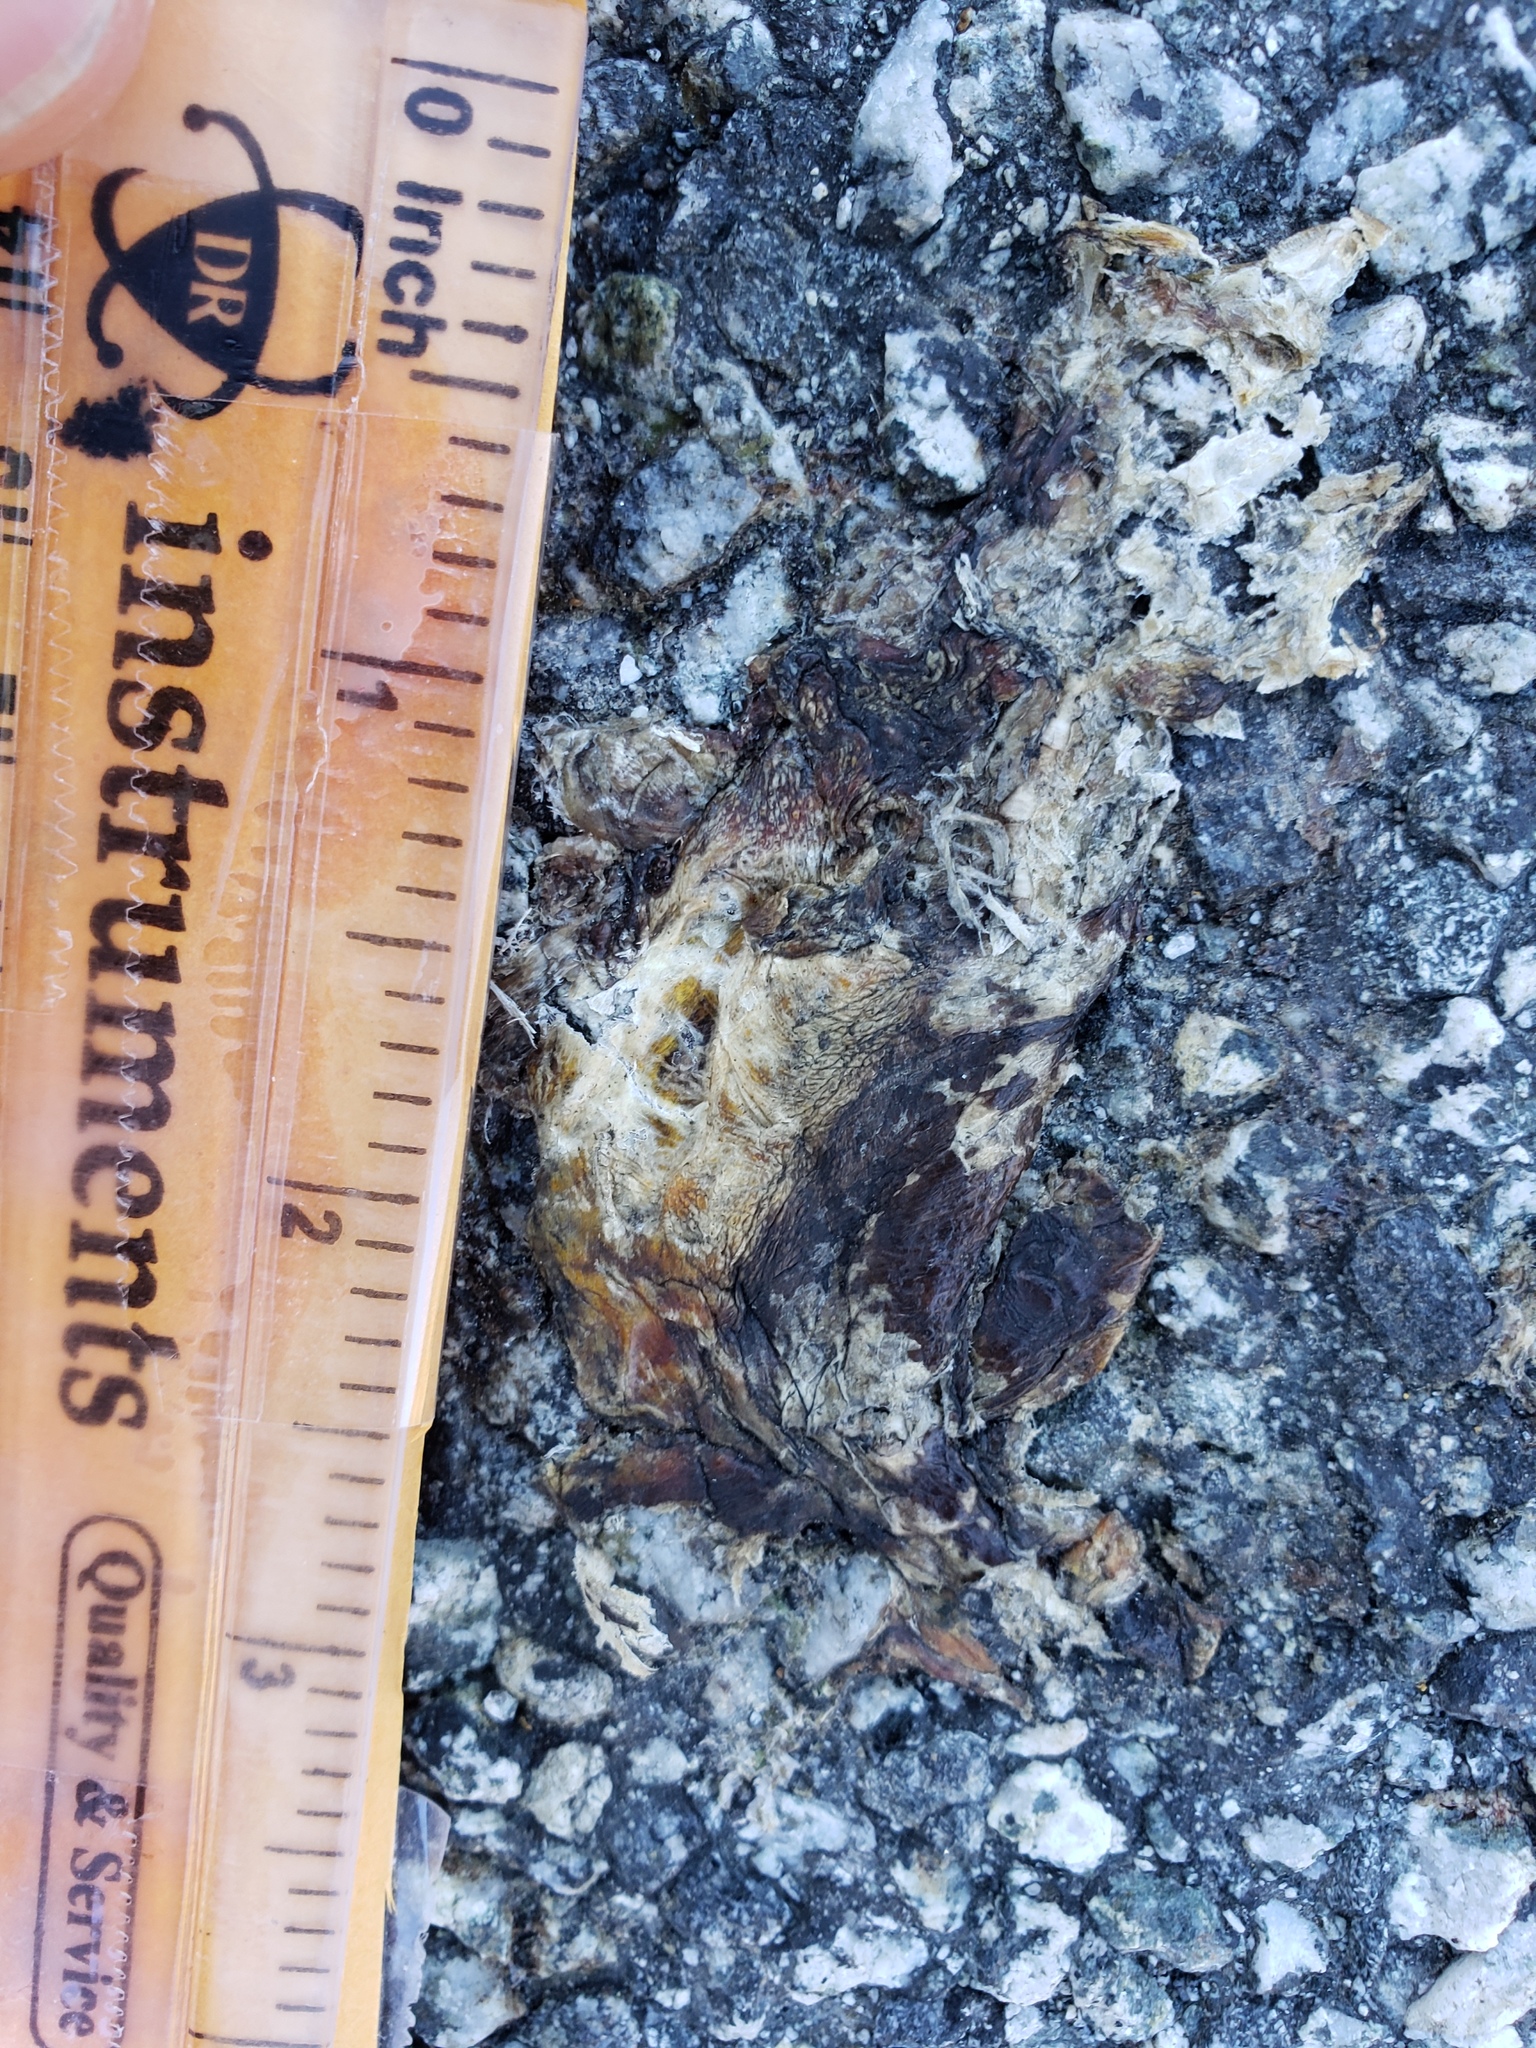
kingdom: Animalia
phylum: Chordata
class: Amphibia
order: Caudata
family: Salamandridae
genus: Taricha
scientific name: Taricha
